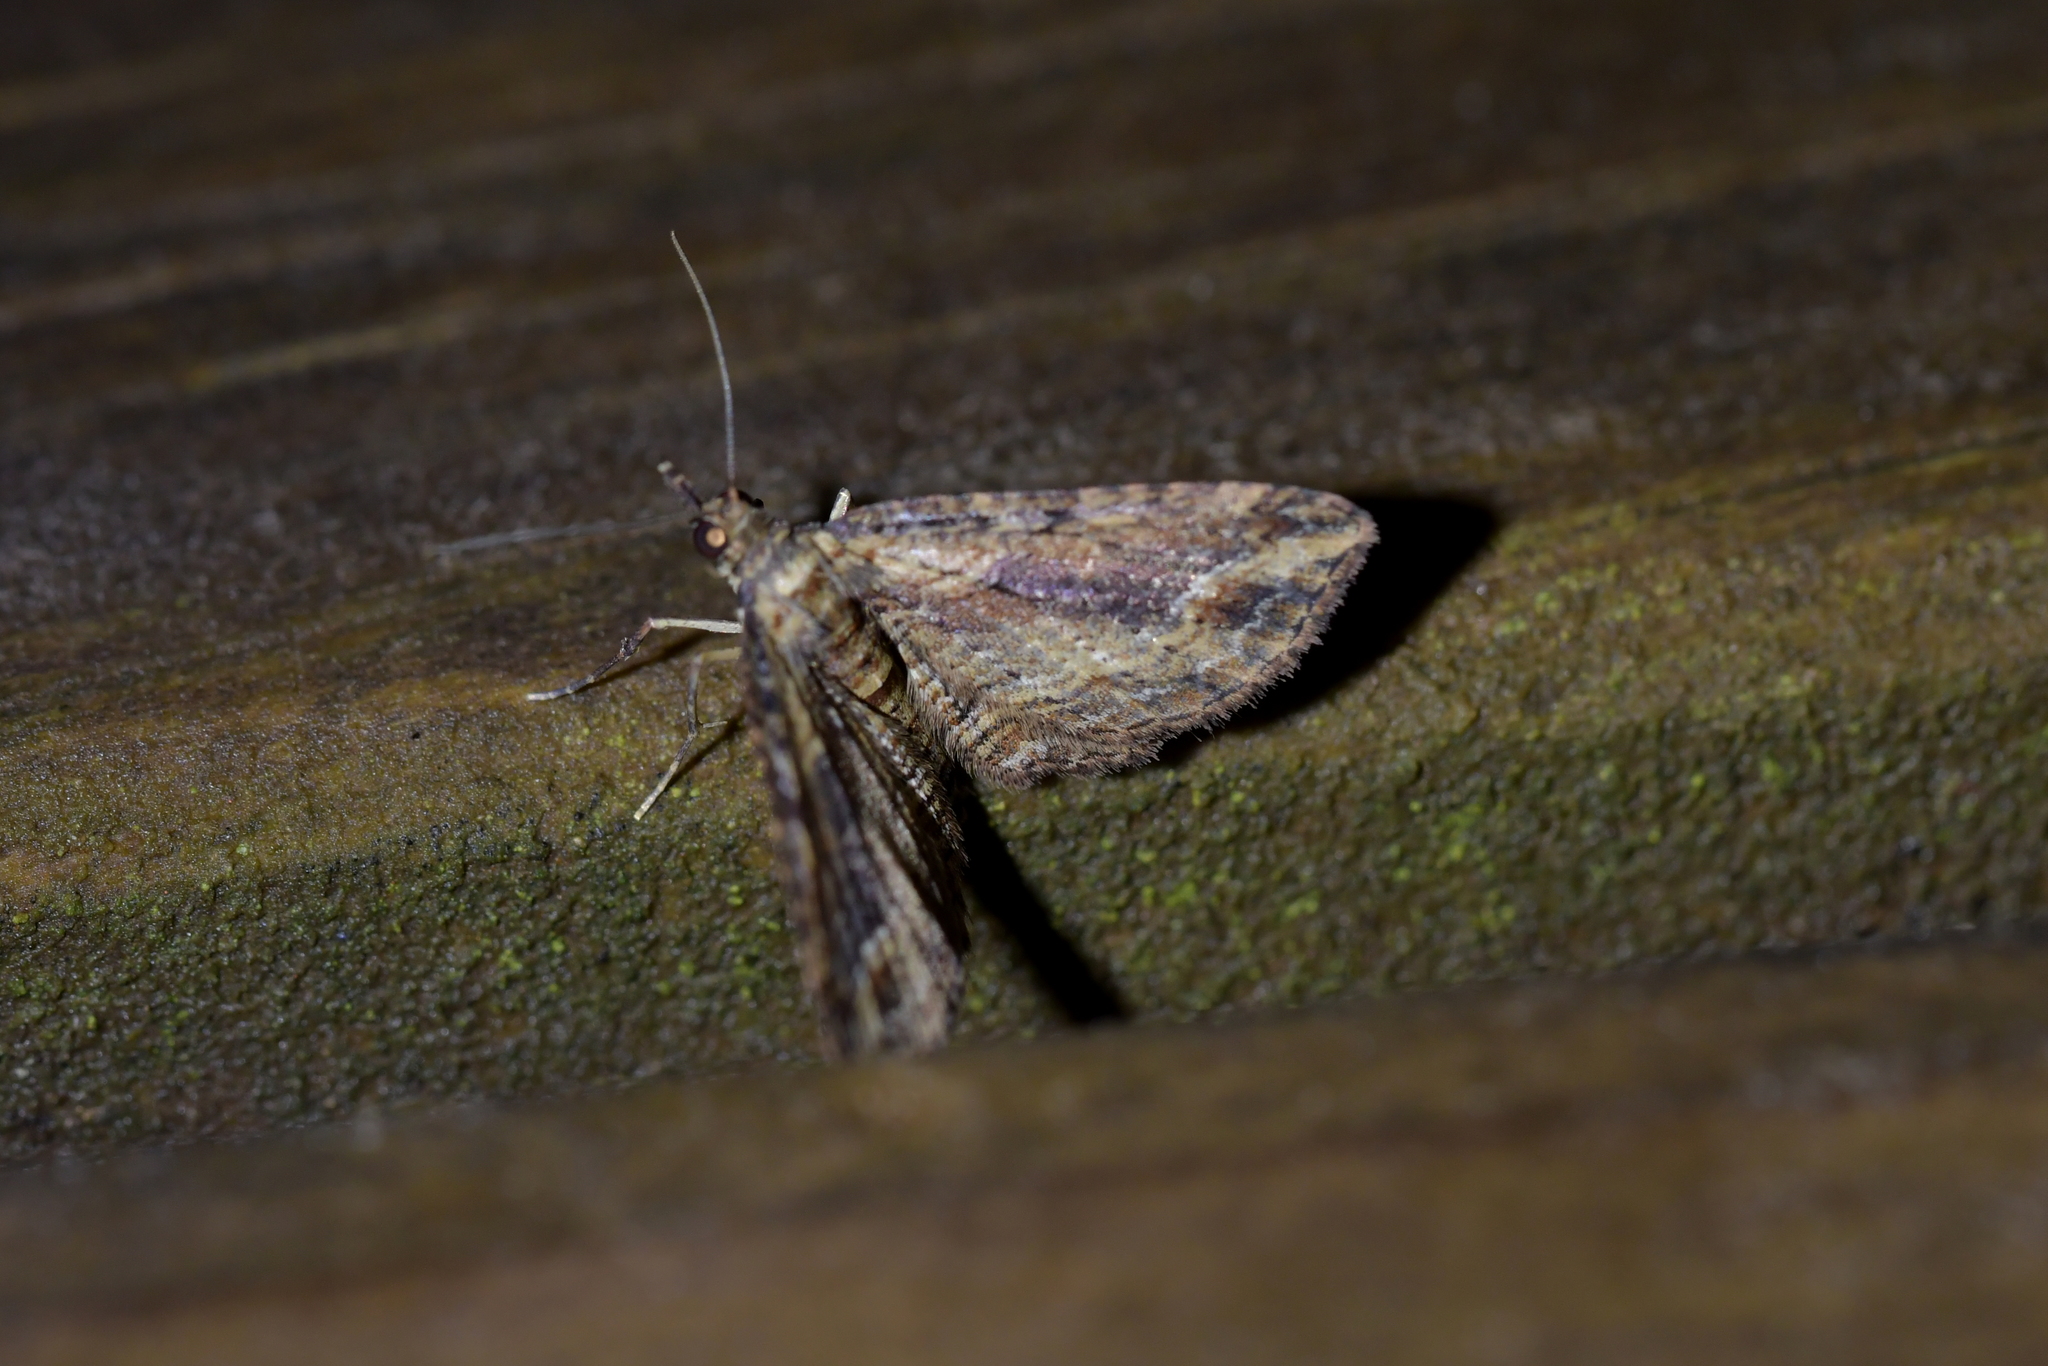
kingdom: Animalia
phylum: Arthropoda
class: Insecta
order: Lepidoptera
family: Geometridae
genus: Chloroclystis
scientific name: Chloroclystis filata
